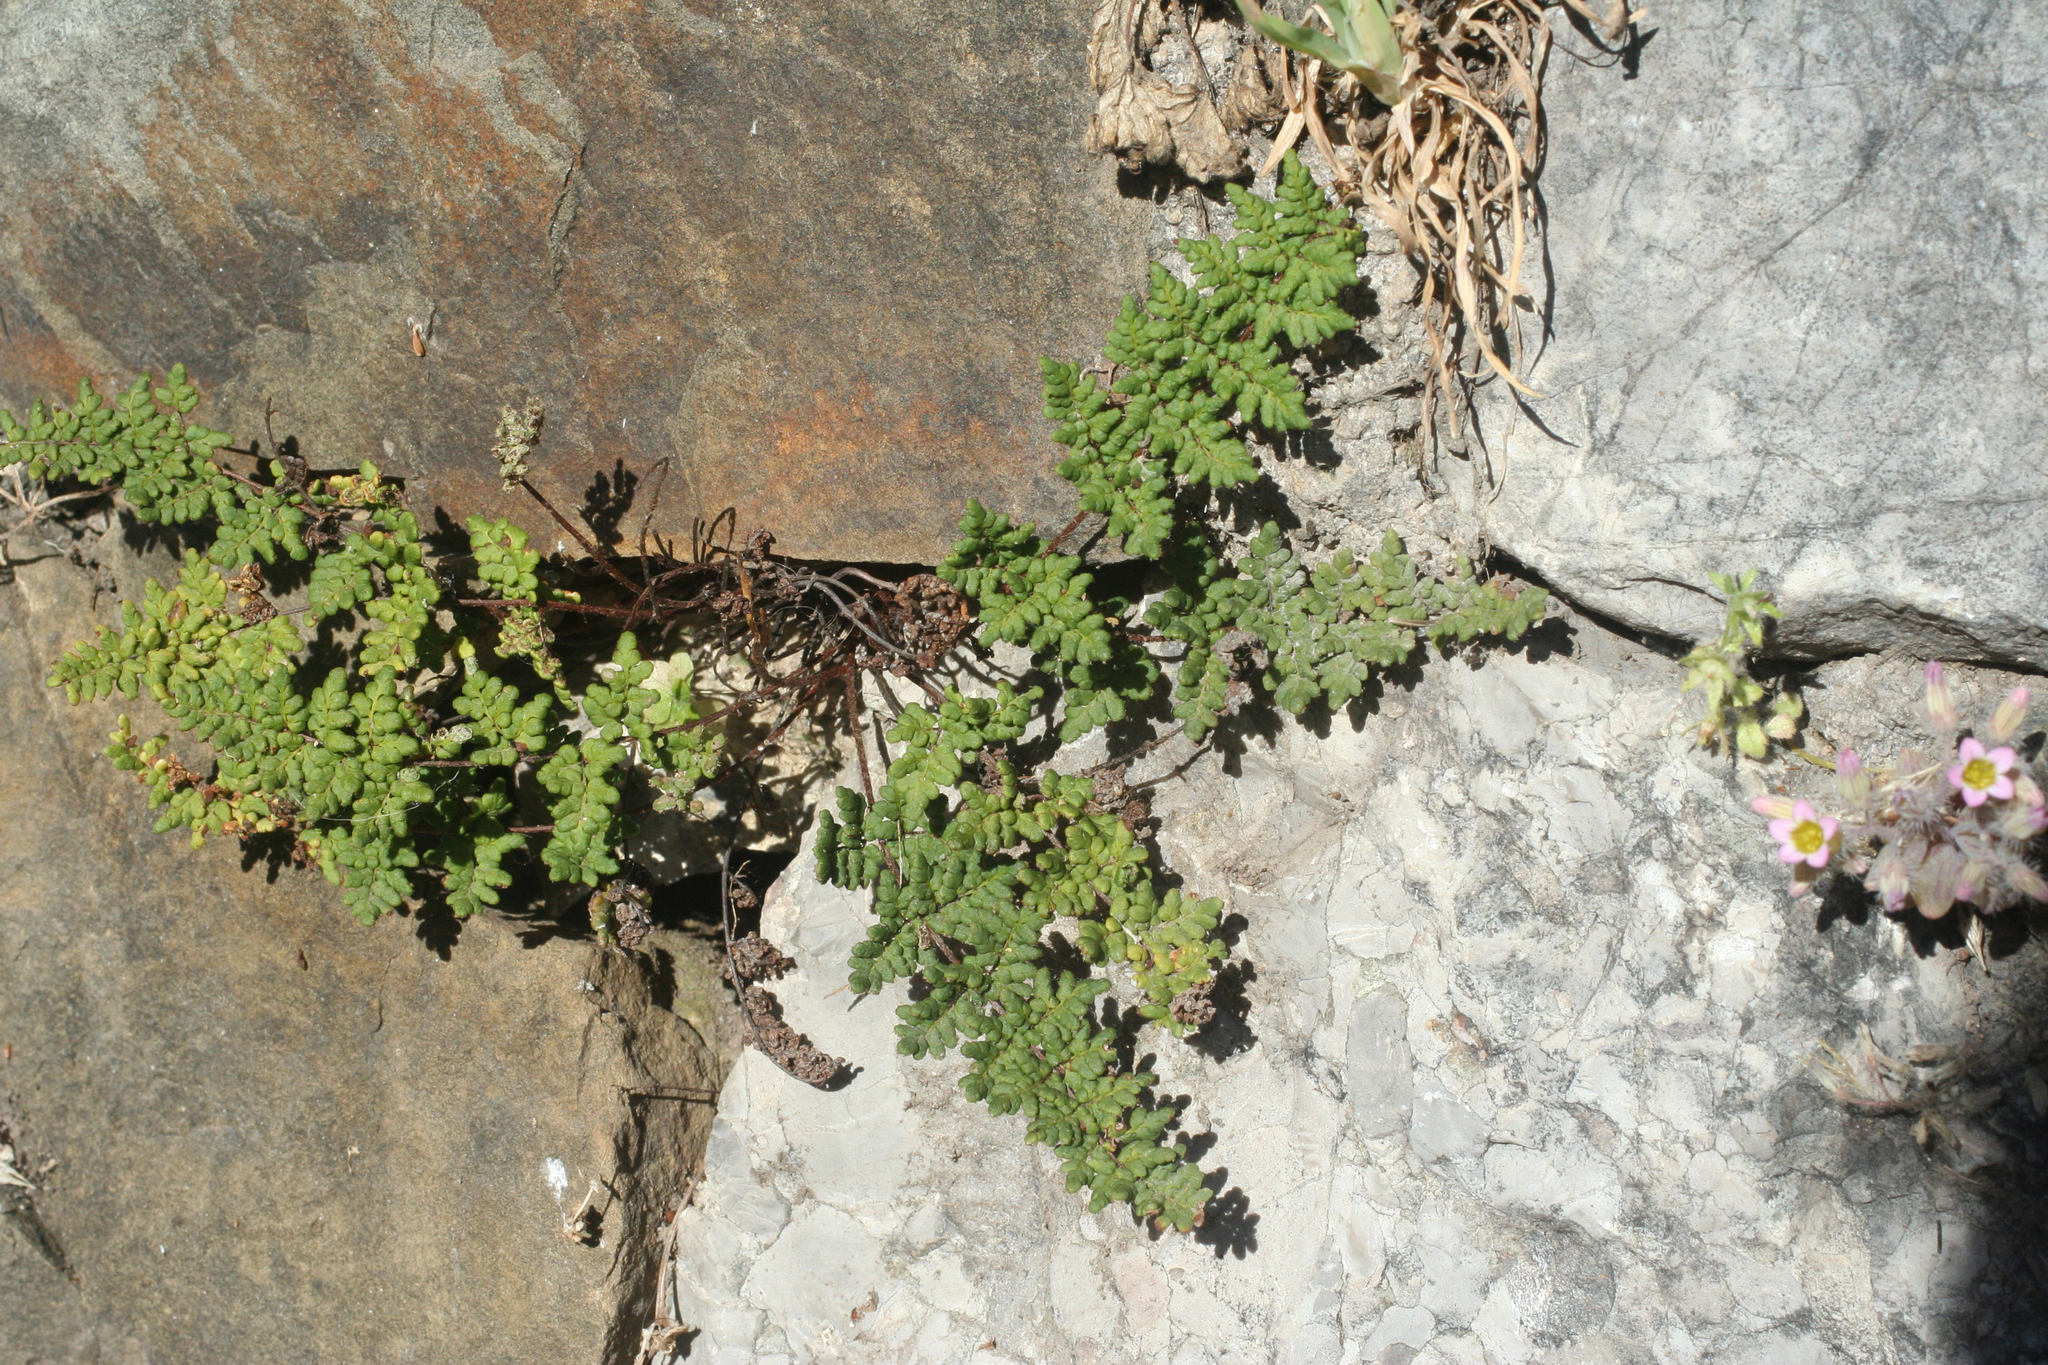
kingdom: Plantae
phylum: Tracheophyta
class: Polypodiopsida
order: Polypodiales
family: Pteridaceae
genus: Oeosporangium
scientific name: Oeosporangium pteridioides
